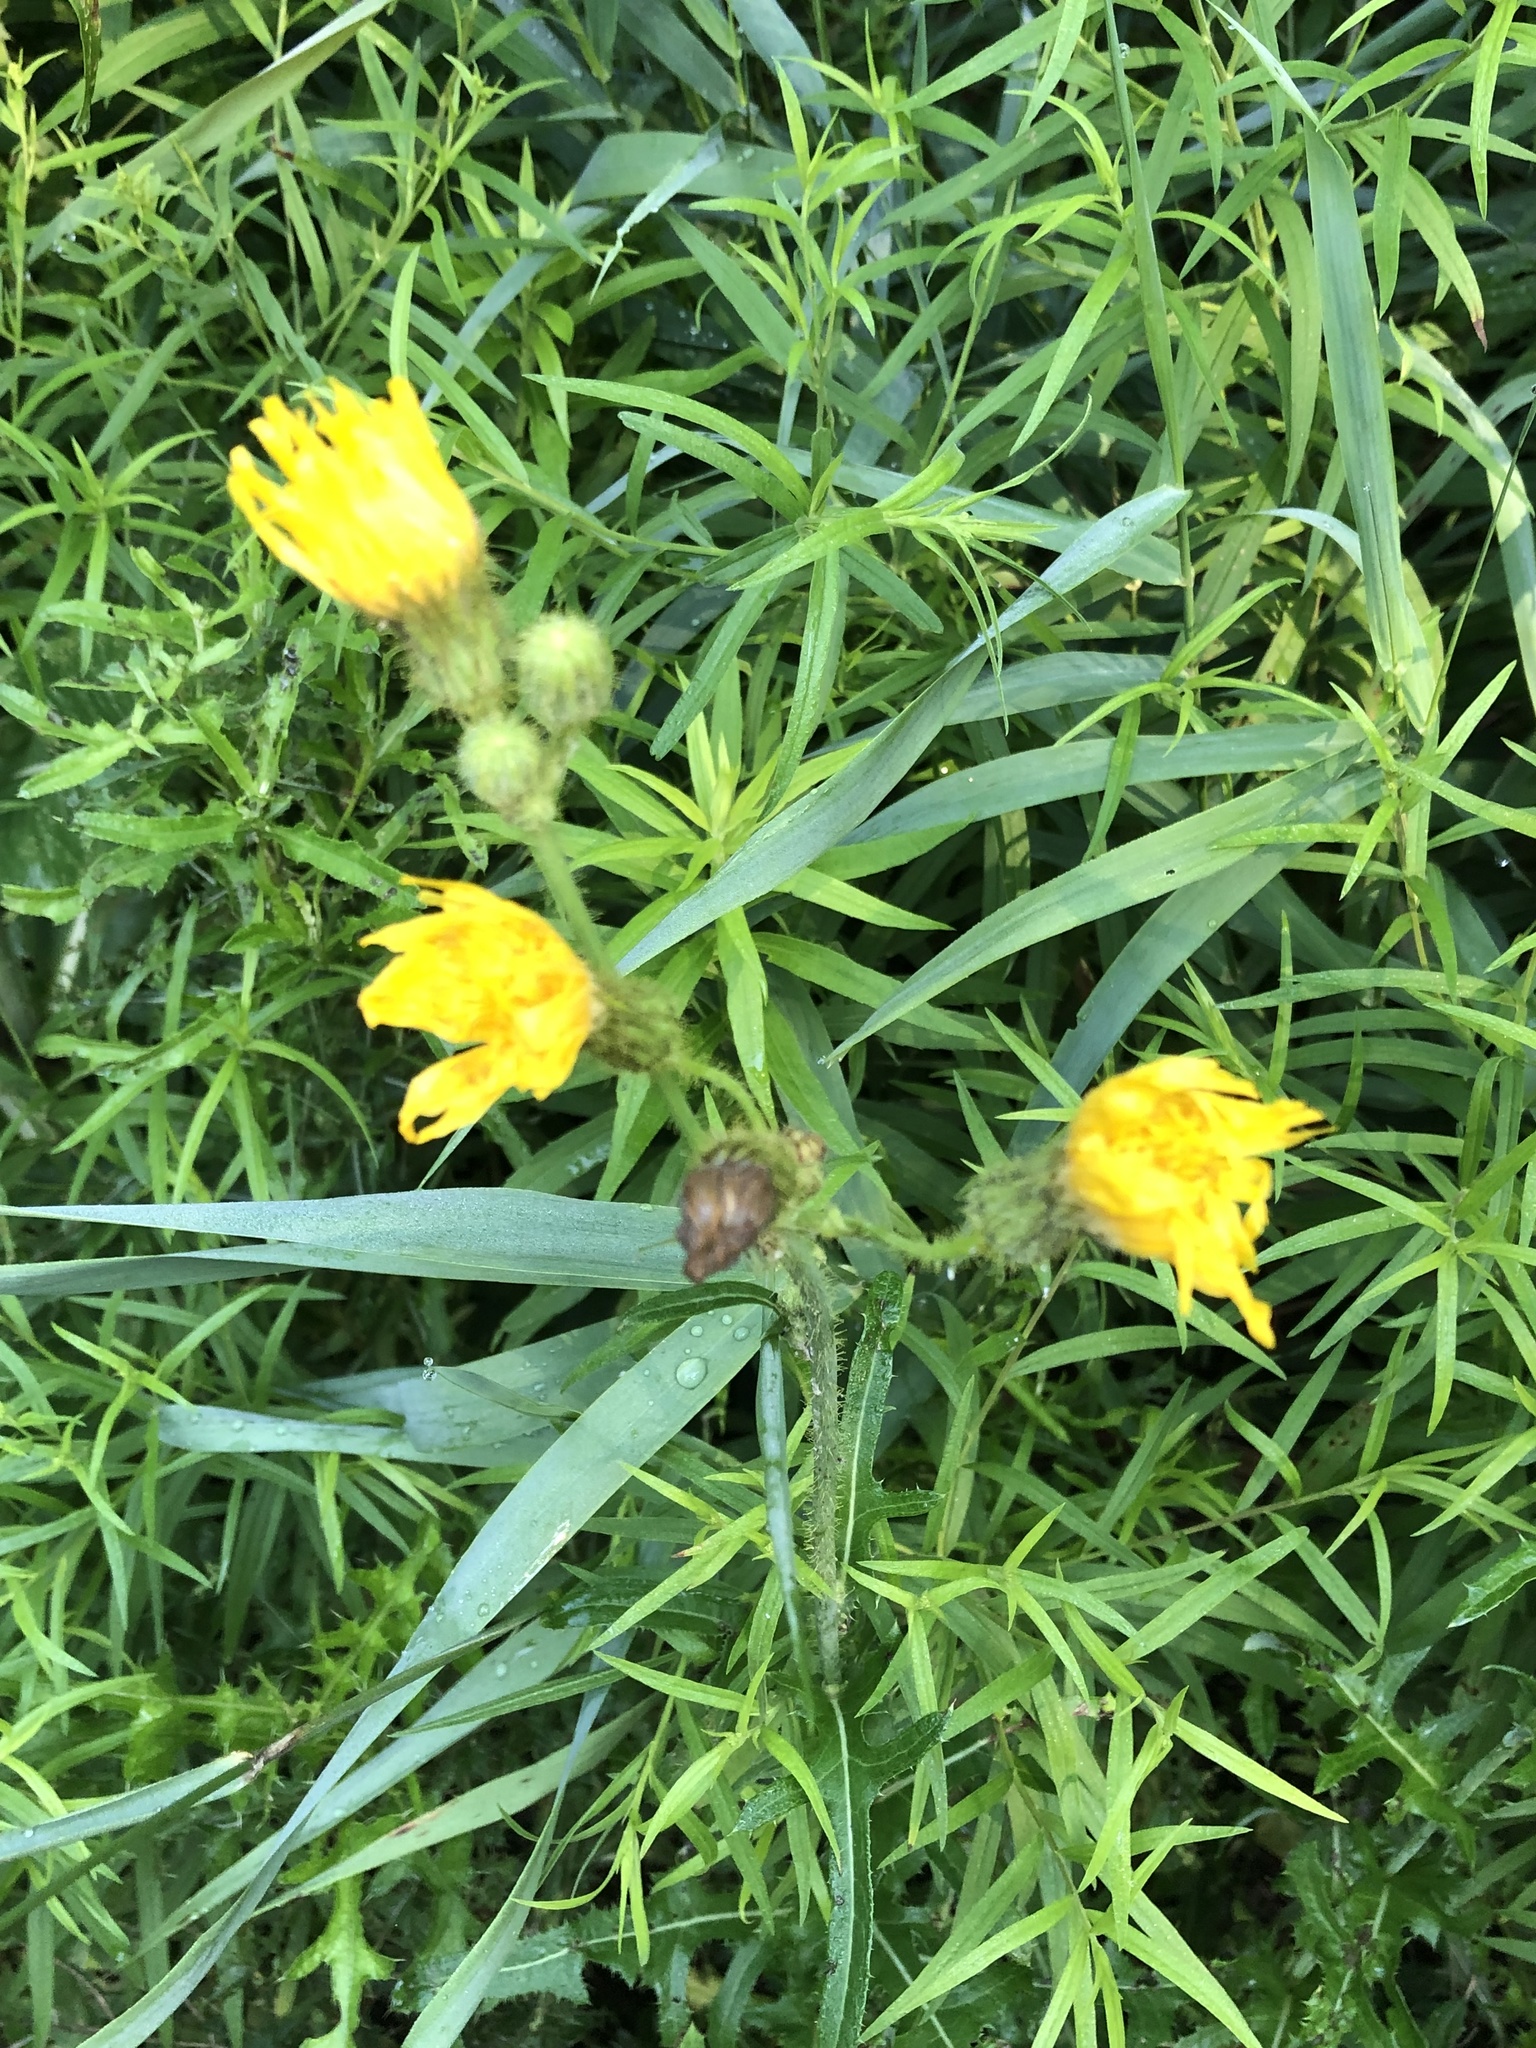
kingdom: Plantae
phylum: Tracheophyta
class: Magnoliopsida
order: Asterales
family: Asteraceae
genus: Sonchus
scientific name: Sonchus arvensis
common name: Perennial sow-thistle
